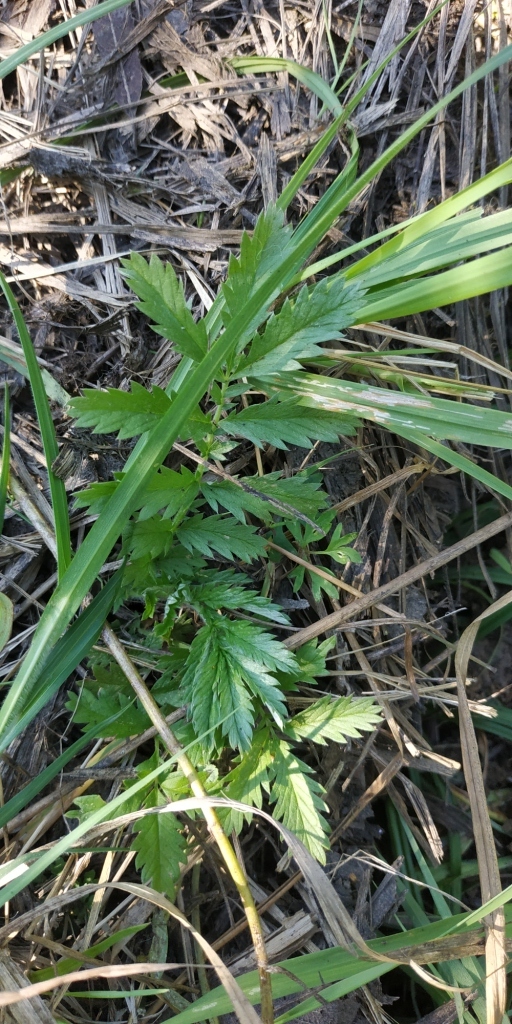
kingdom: Plantae
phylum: Tracheophyta
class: Magnoliopsida
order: Rosales
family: Rosaceae
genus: Argentina
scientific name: Argentina anserina
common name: Common silverweed
